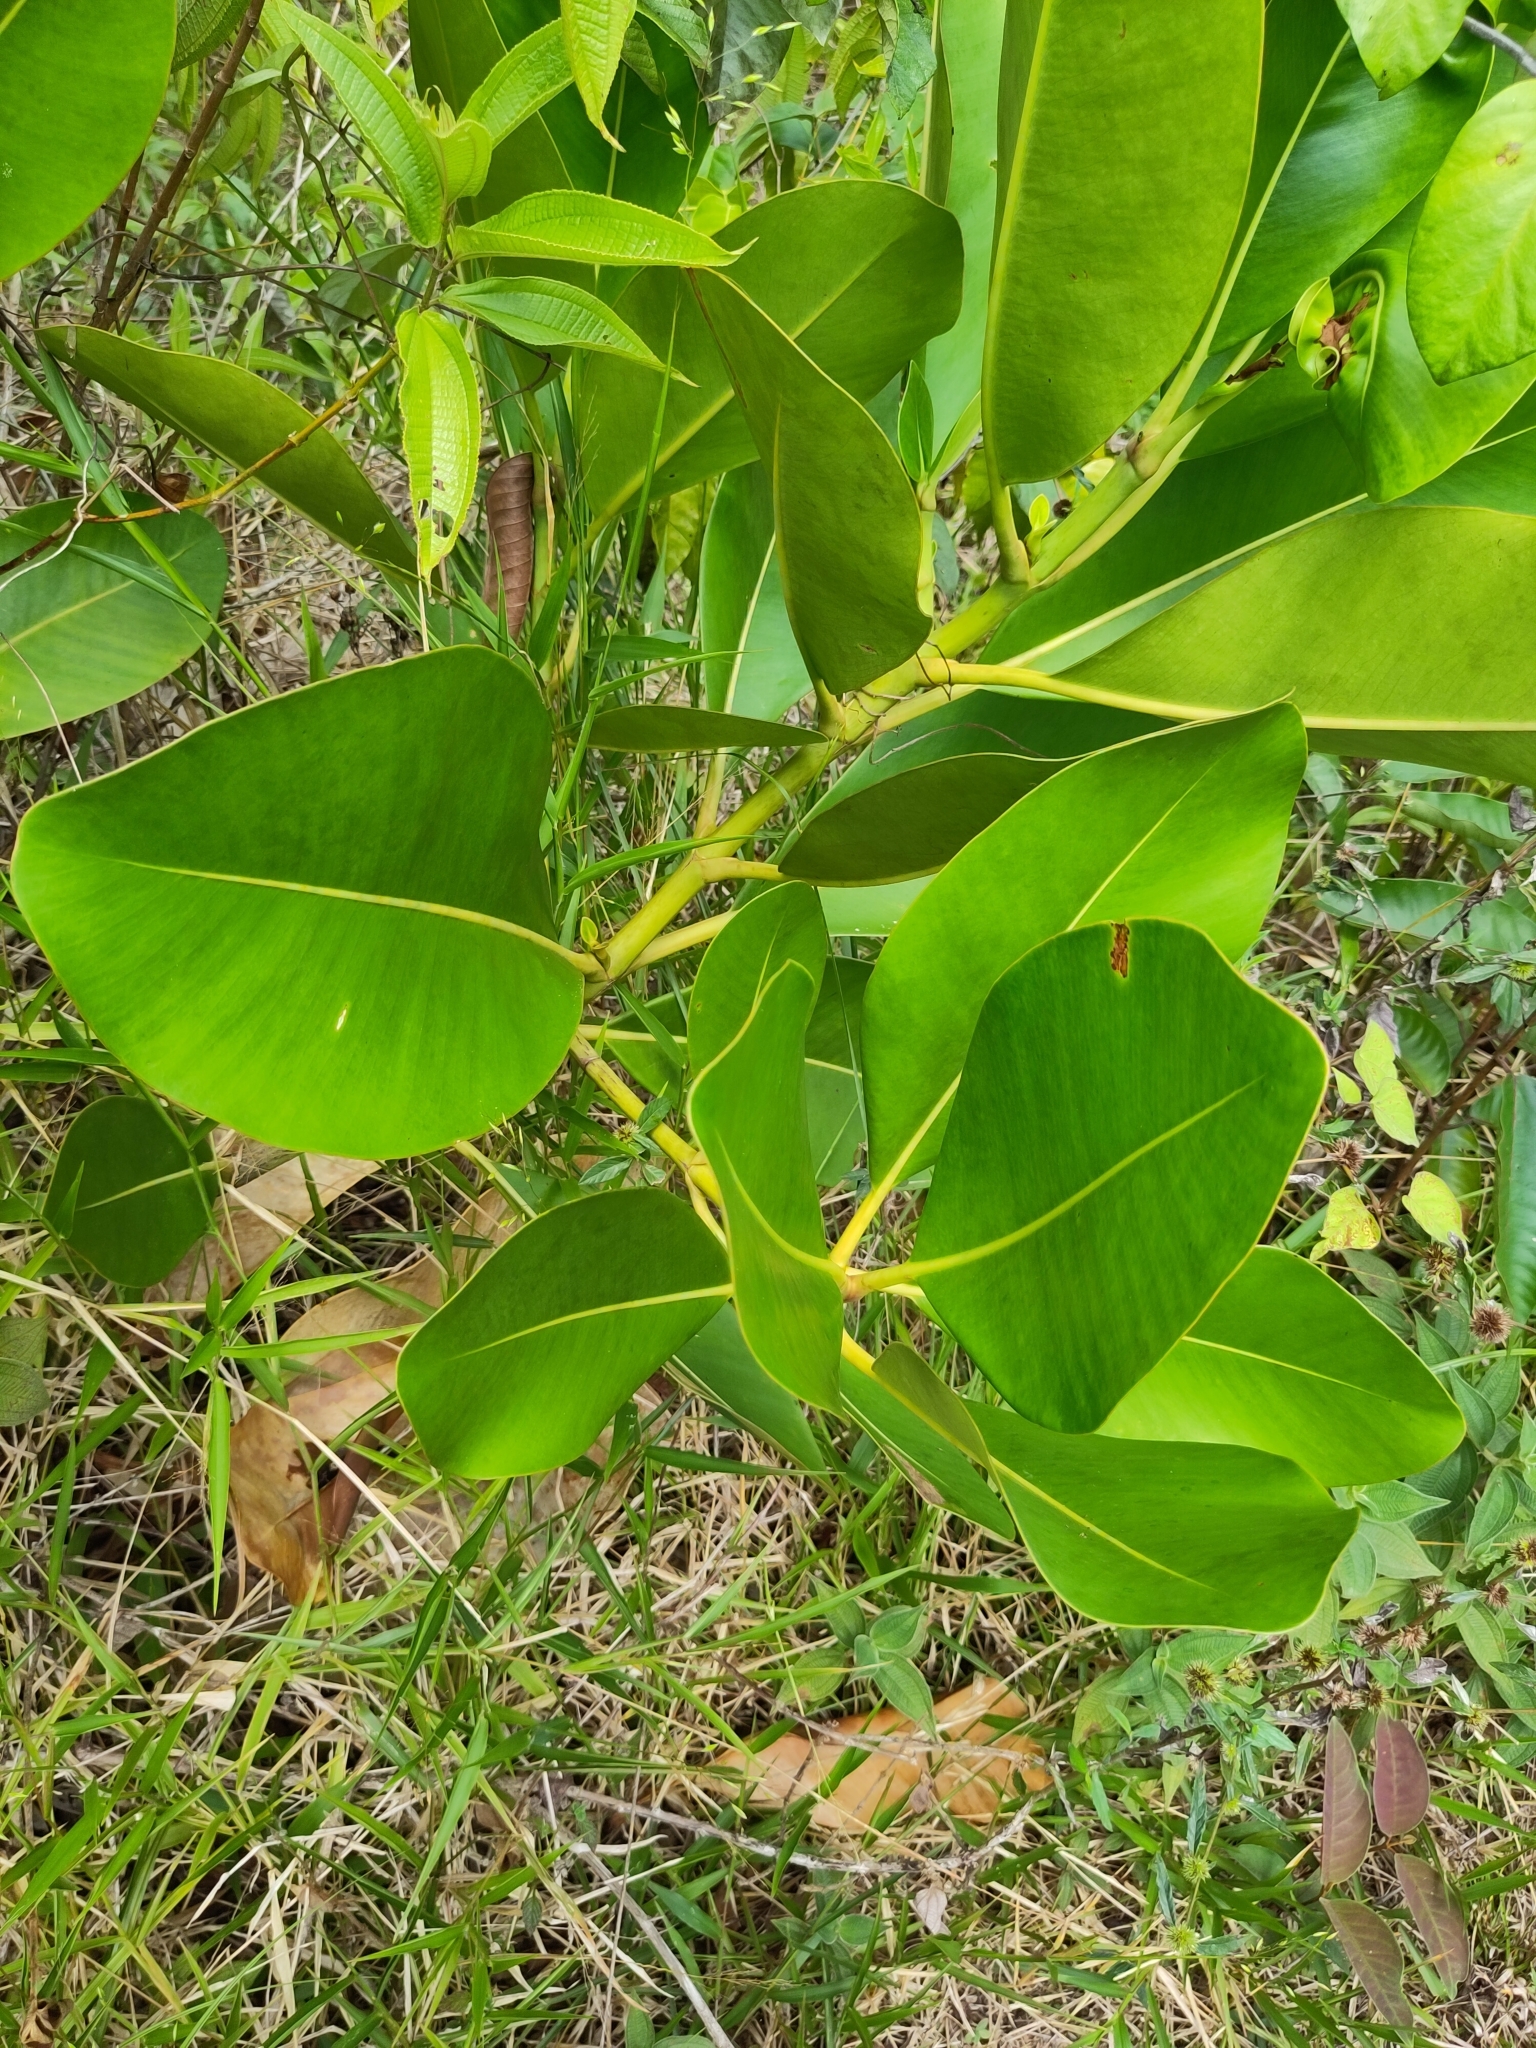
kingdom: Plantae
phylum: Tracheophyta
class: Magnoliopsida
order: Rosales
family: Moraceae
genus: Ficus
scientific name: Ficus elastica
